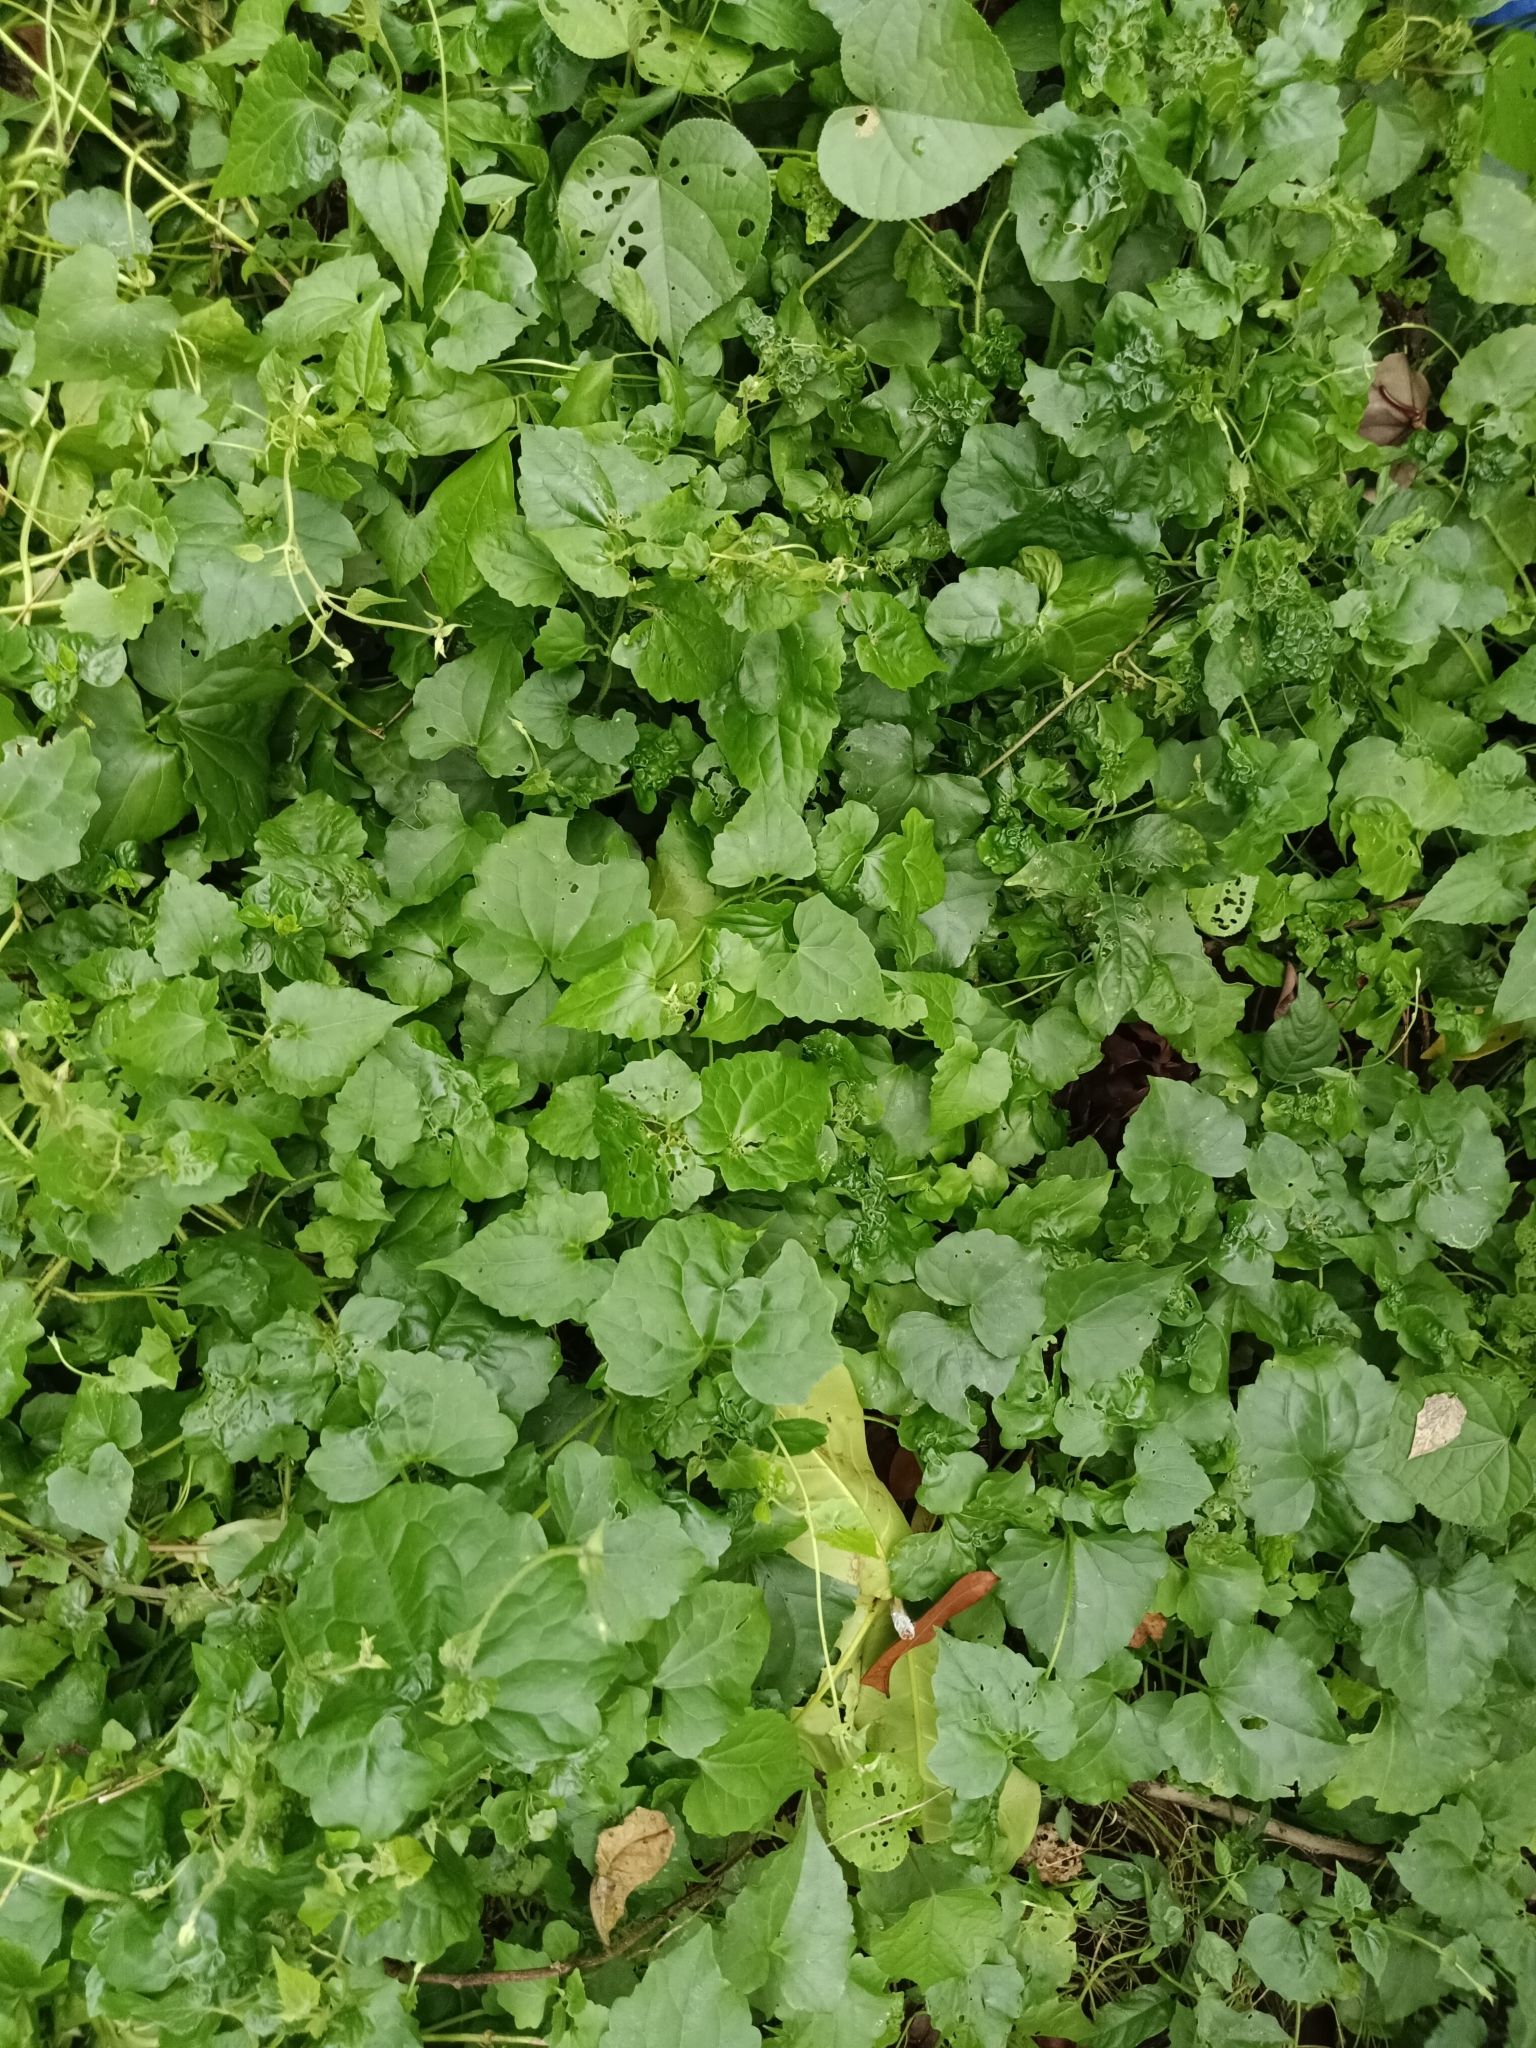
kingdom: Plantae
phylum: Tracheophyta
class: Magnoliopsida
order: Asterales
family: Asteraceae
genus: Mikania
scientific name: Mikania micrantha
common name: Mile-a-minute
